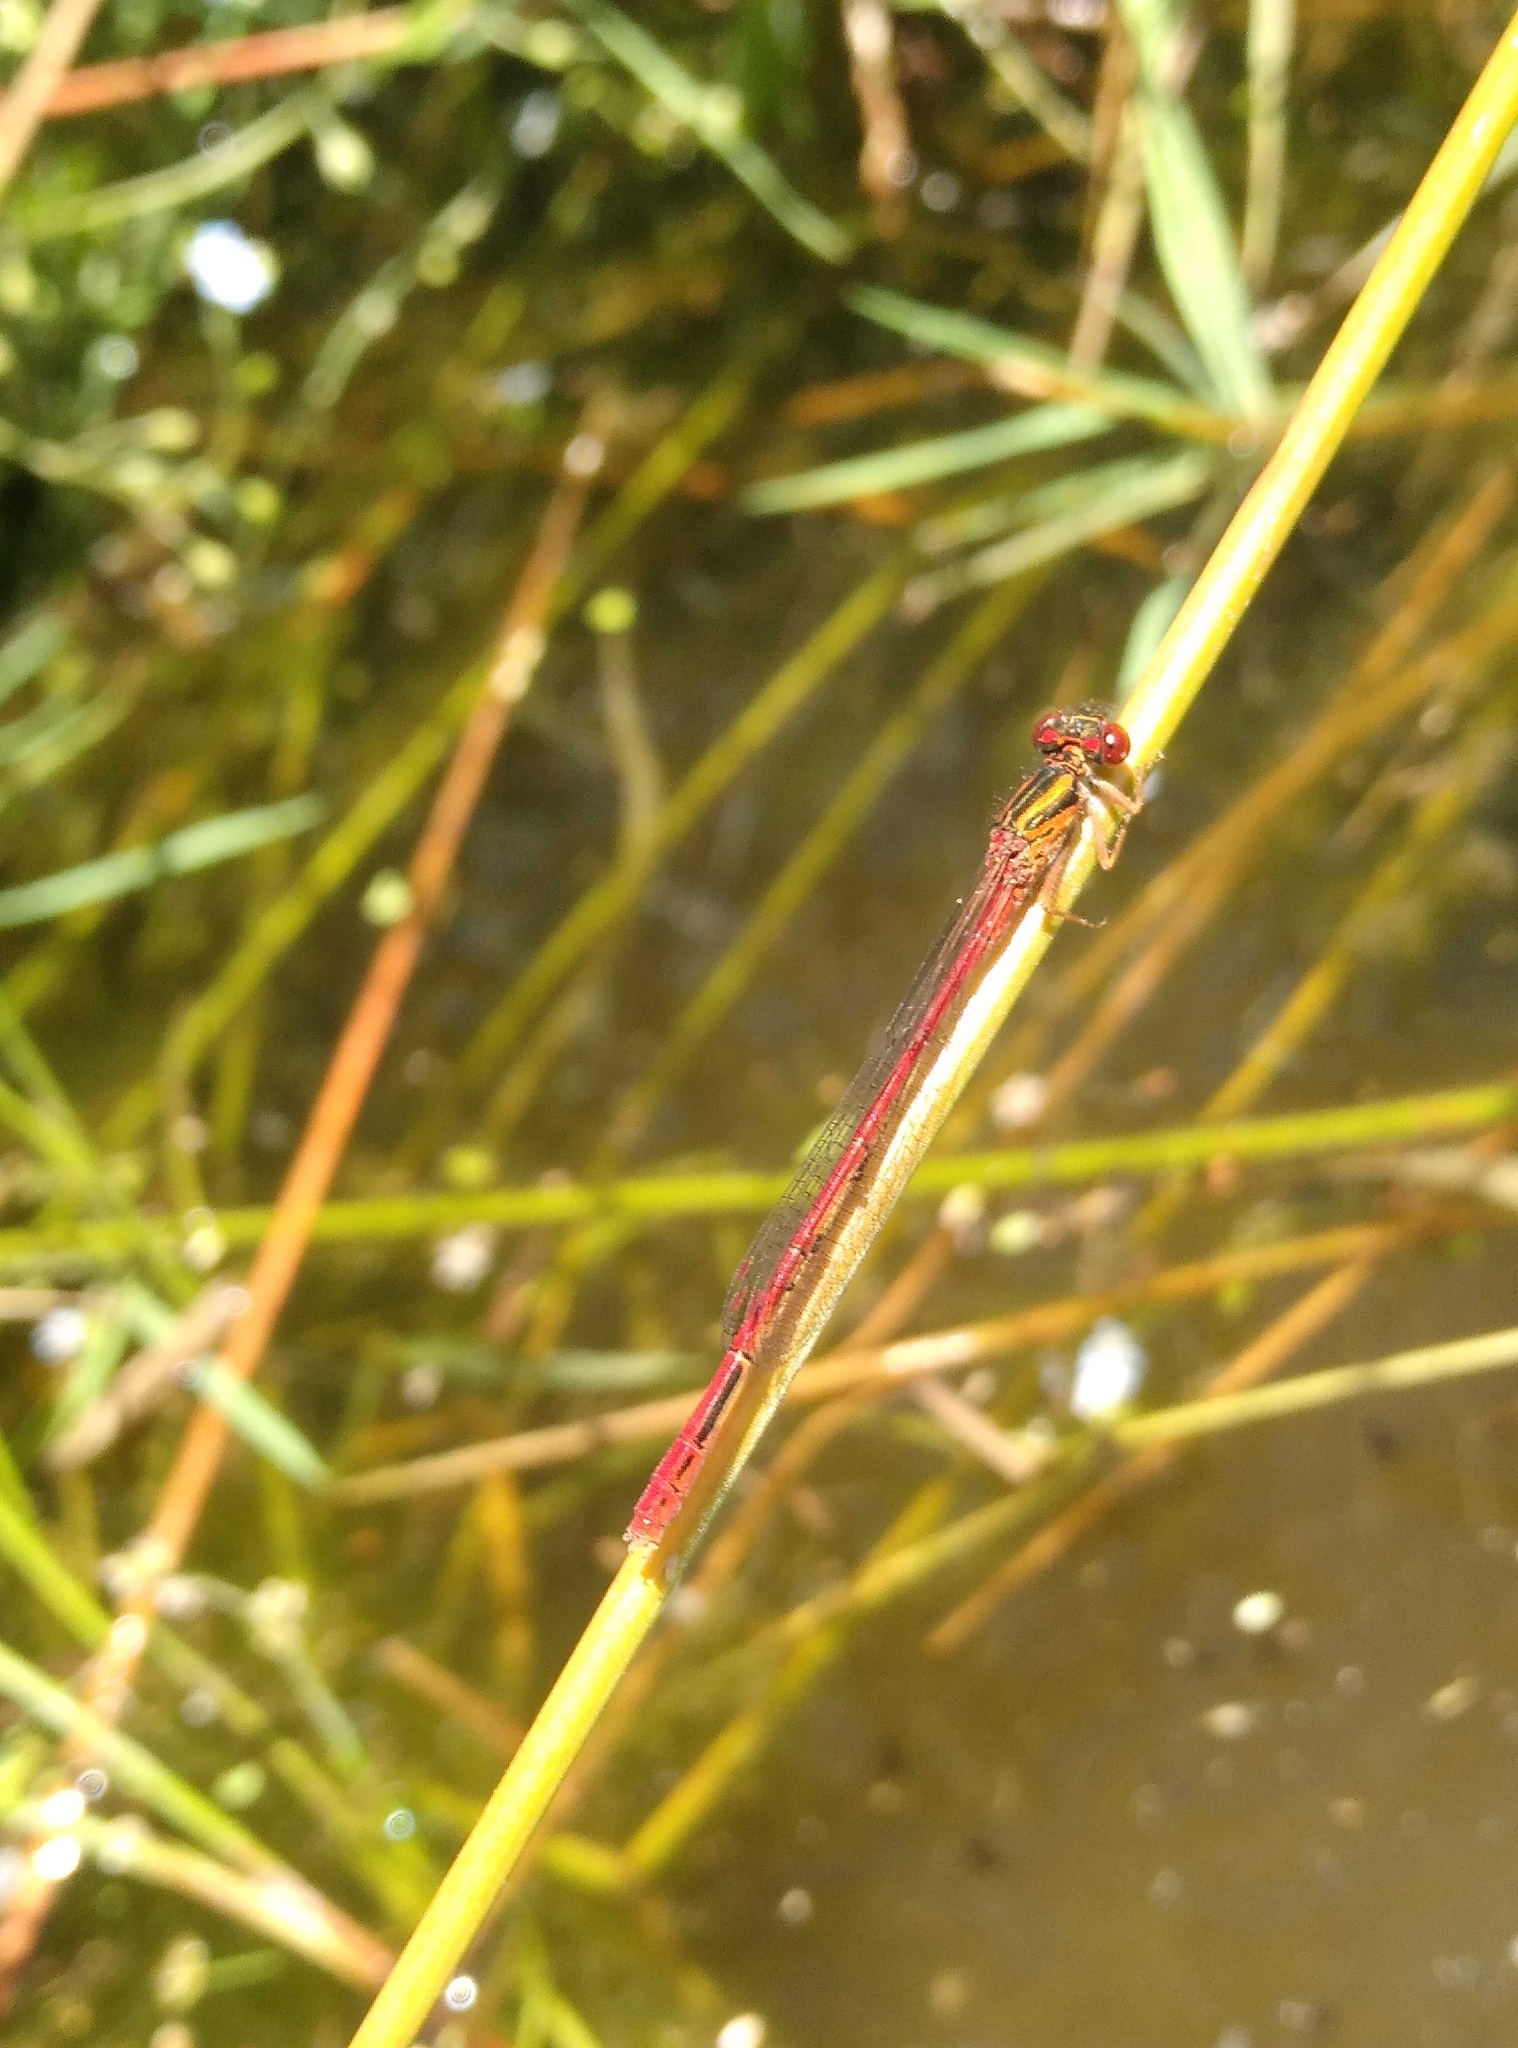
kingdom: Animalia
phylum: Arthropoda
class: Insecta
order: Odonata
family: Coenagrionidae
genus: Xanthocnemis
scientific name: Xanthocnemis zealandica
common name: Common redcoat damselfly
